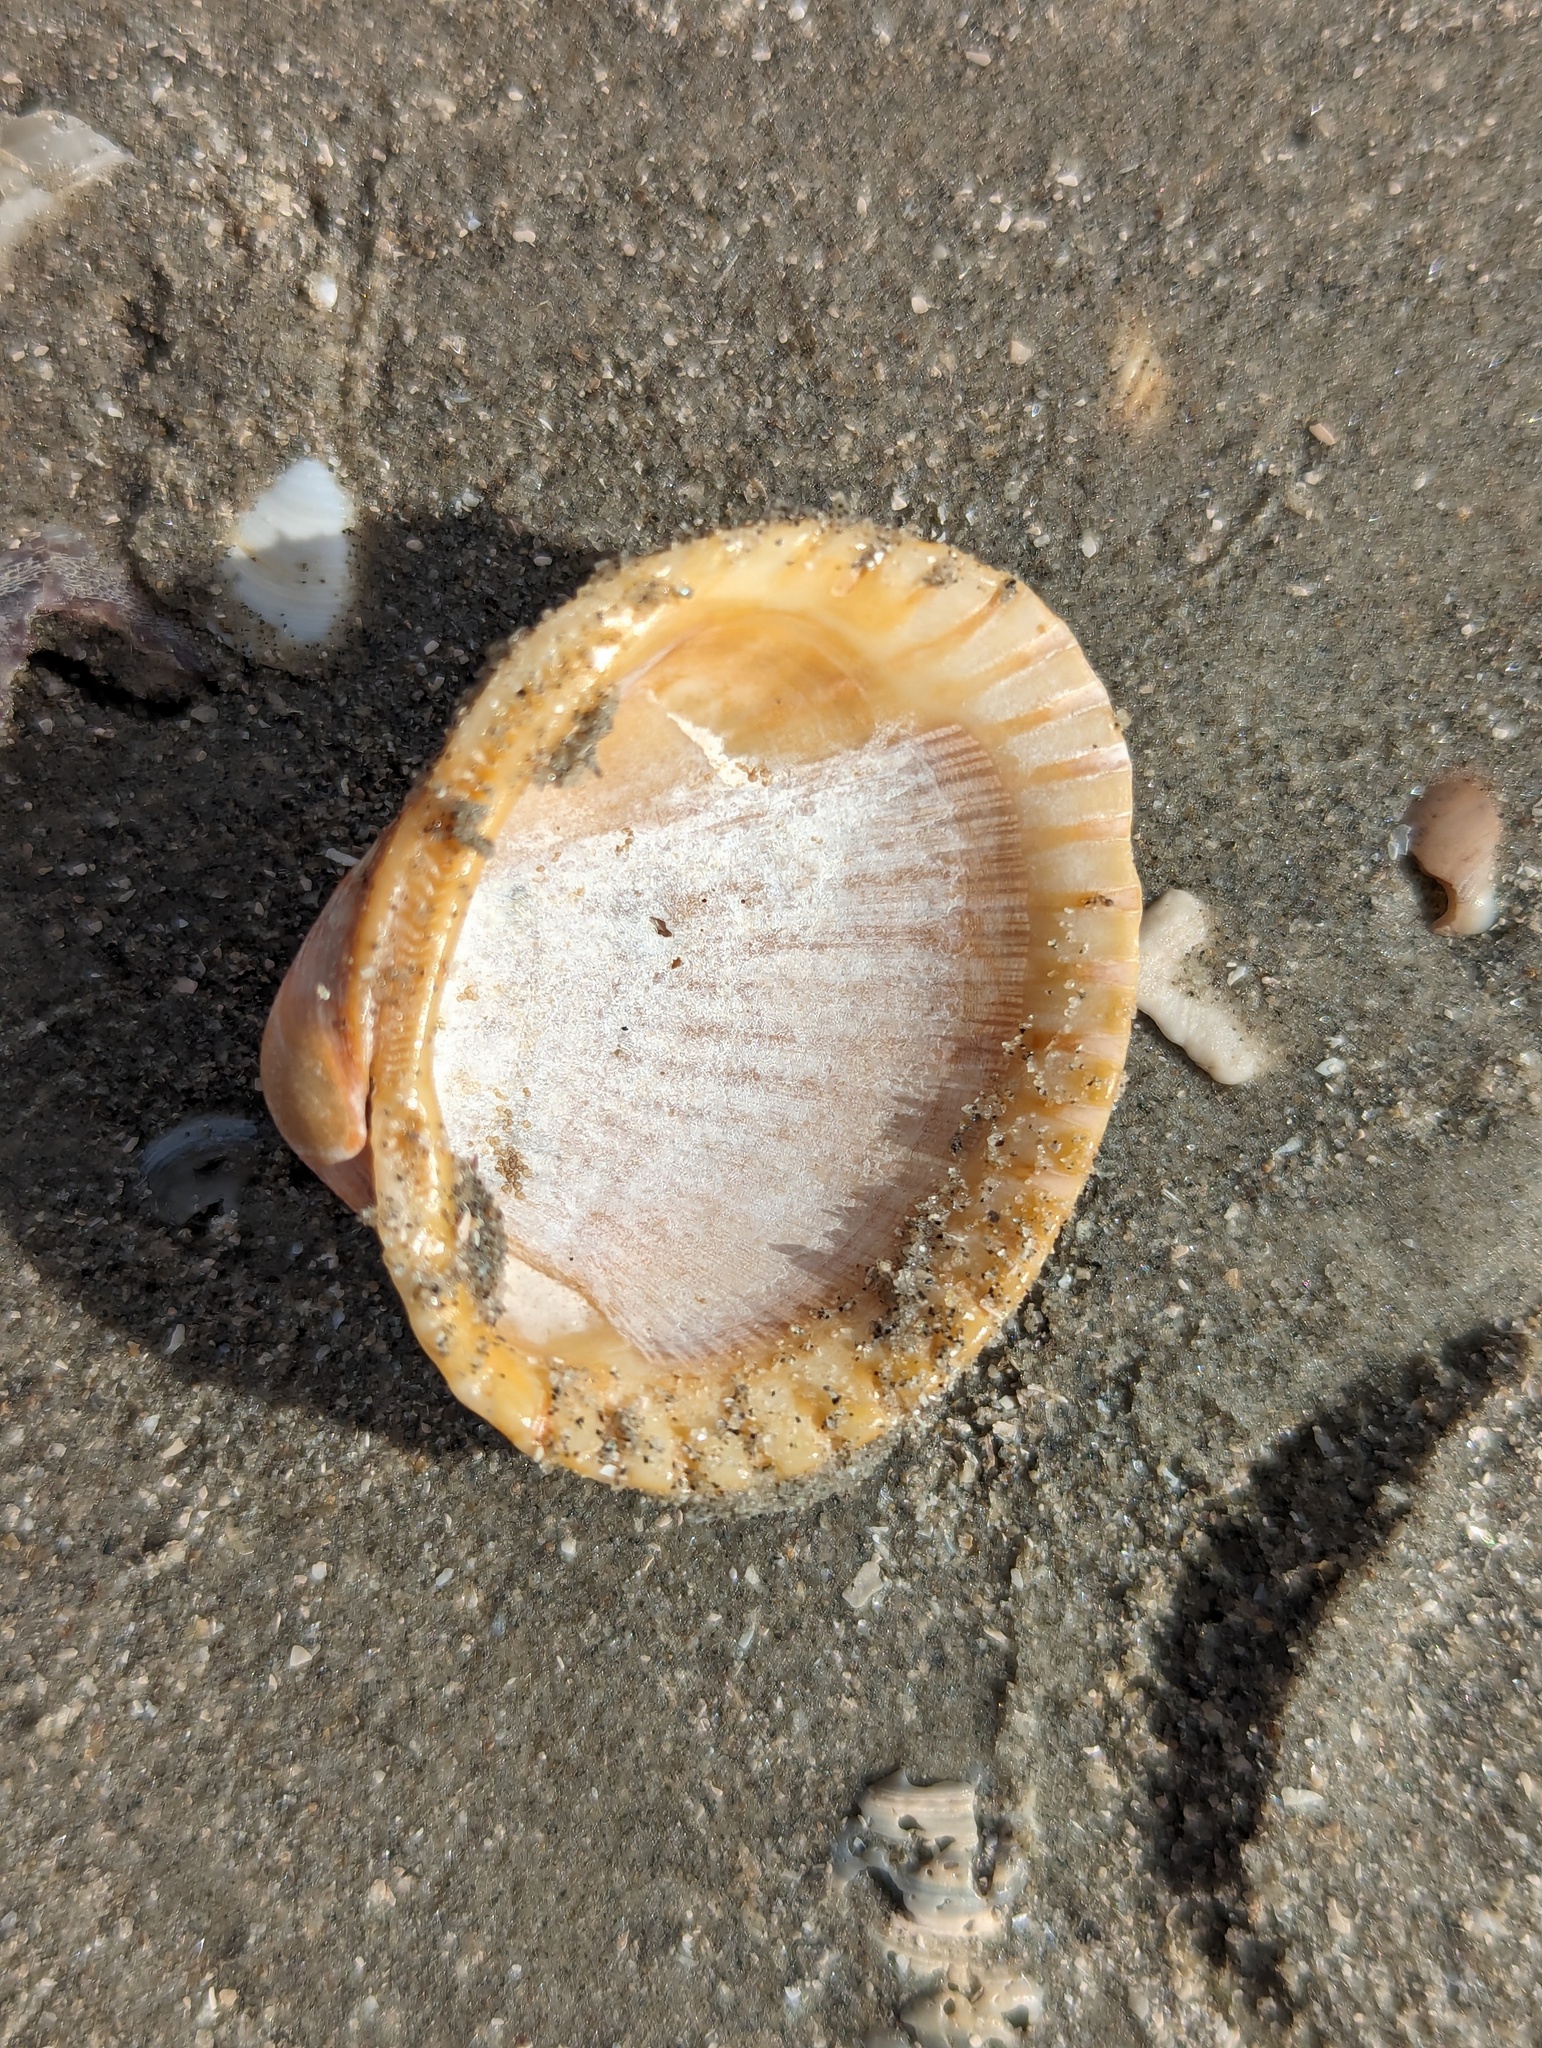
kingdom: Animalia
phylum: Mollusca
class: Bivalvia
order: Arcida
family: Arcidae
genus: Lunarca
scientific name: Lunarca ovalis
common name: Blood ark
